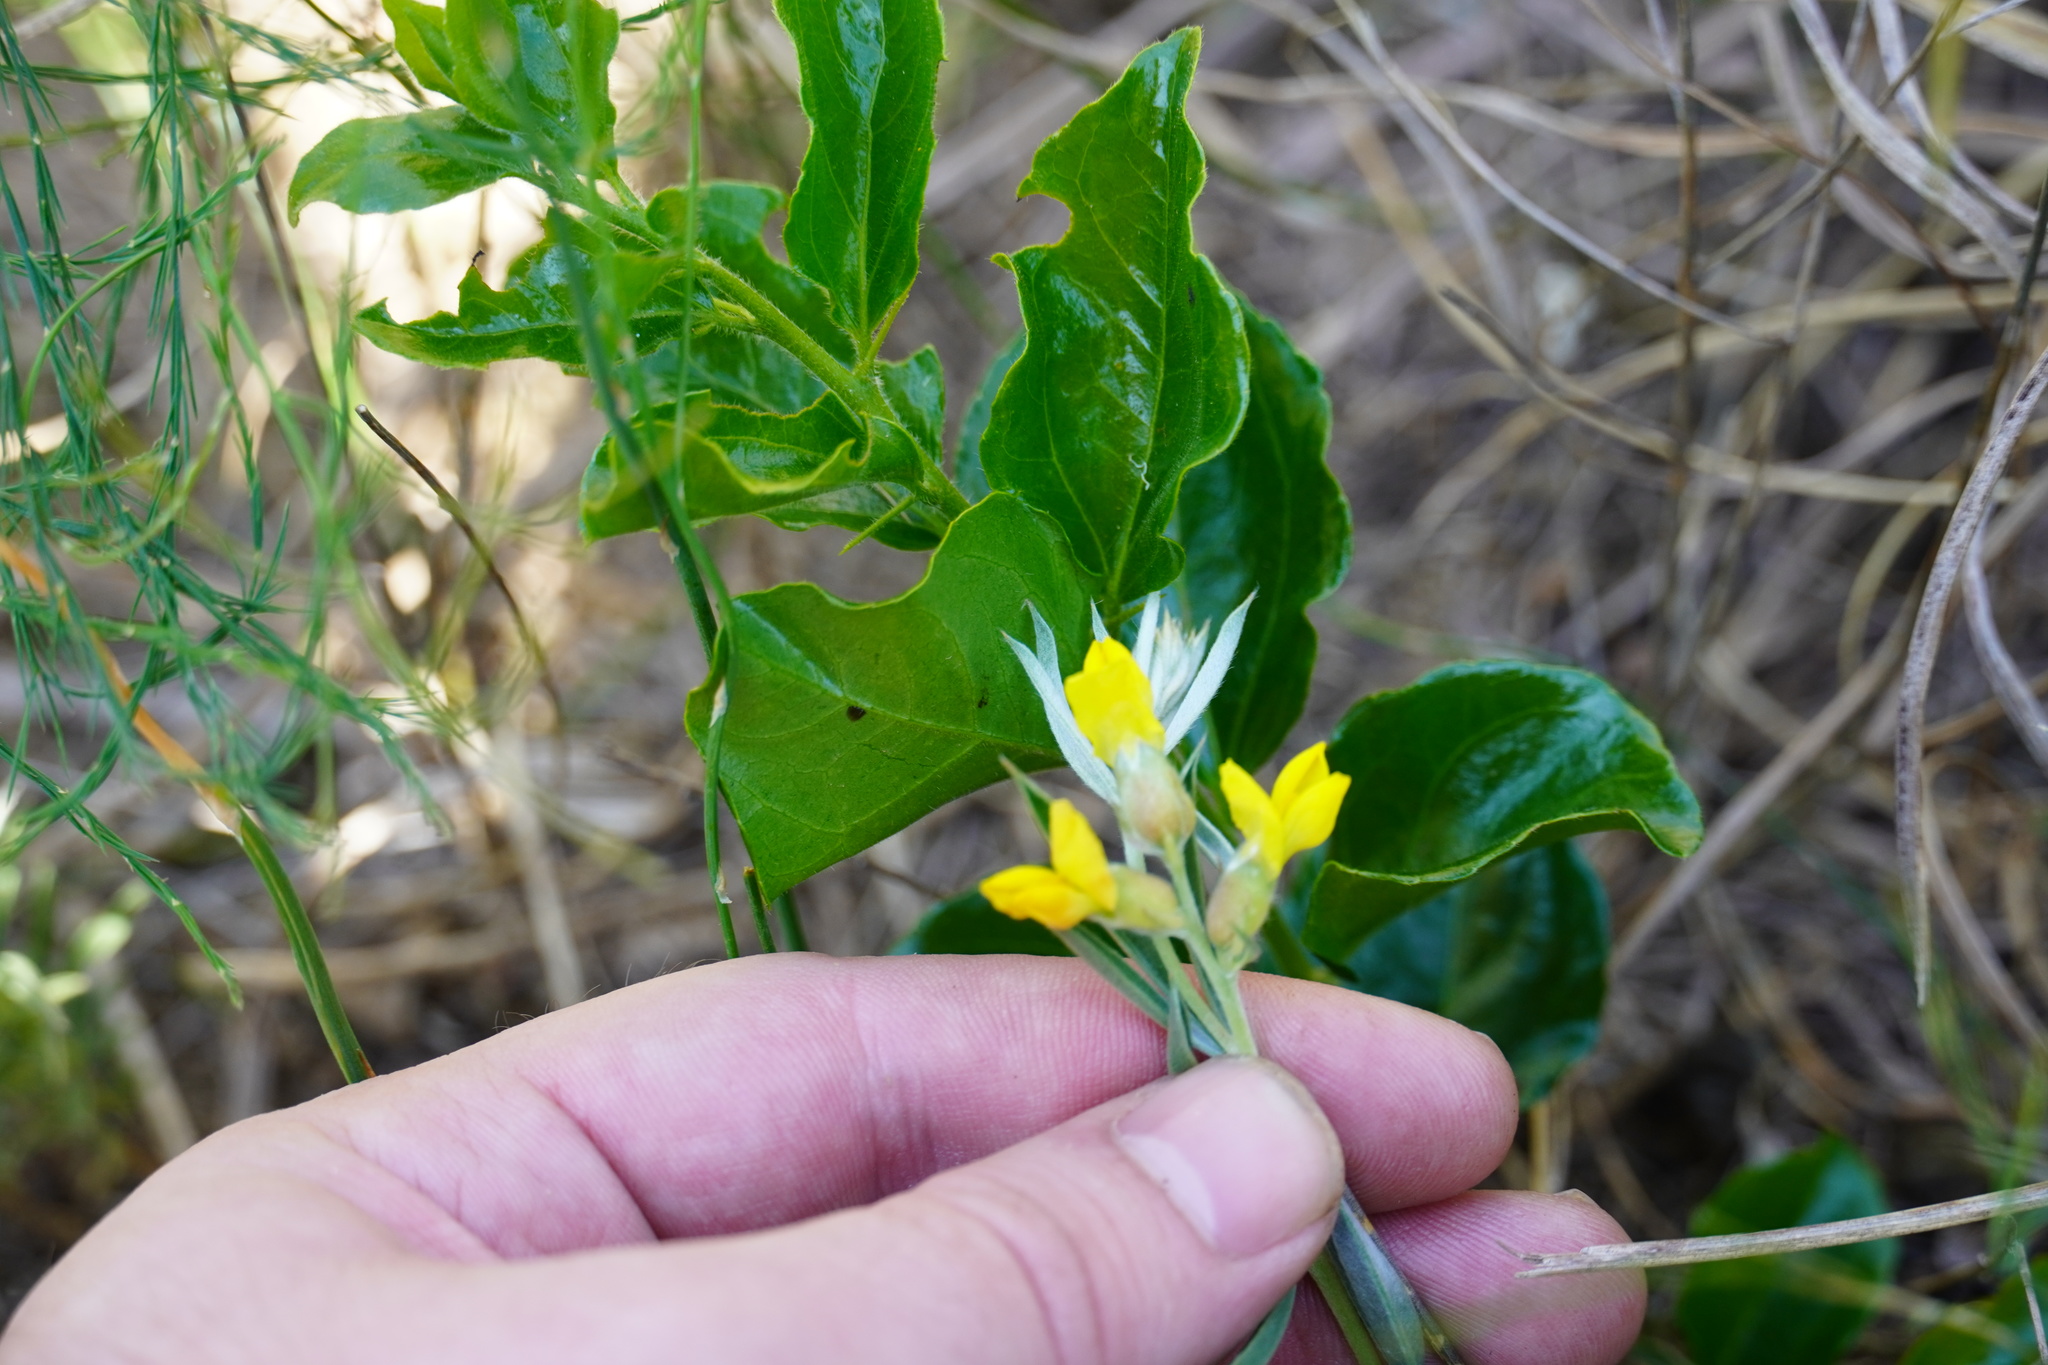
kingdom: Plantae
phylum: Tracheophyta
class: Magnoliopsida
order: Fabales
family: Fabaceae
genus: Pearsonia
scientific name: Pearsonia sessilifolia
